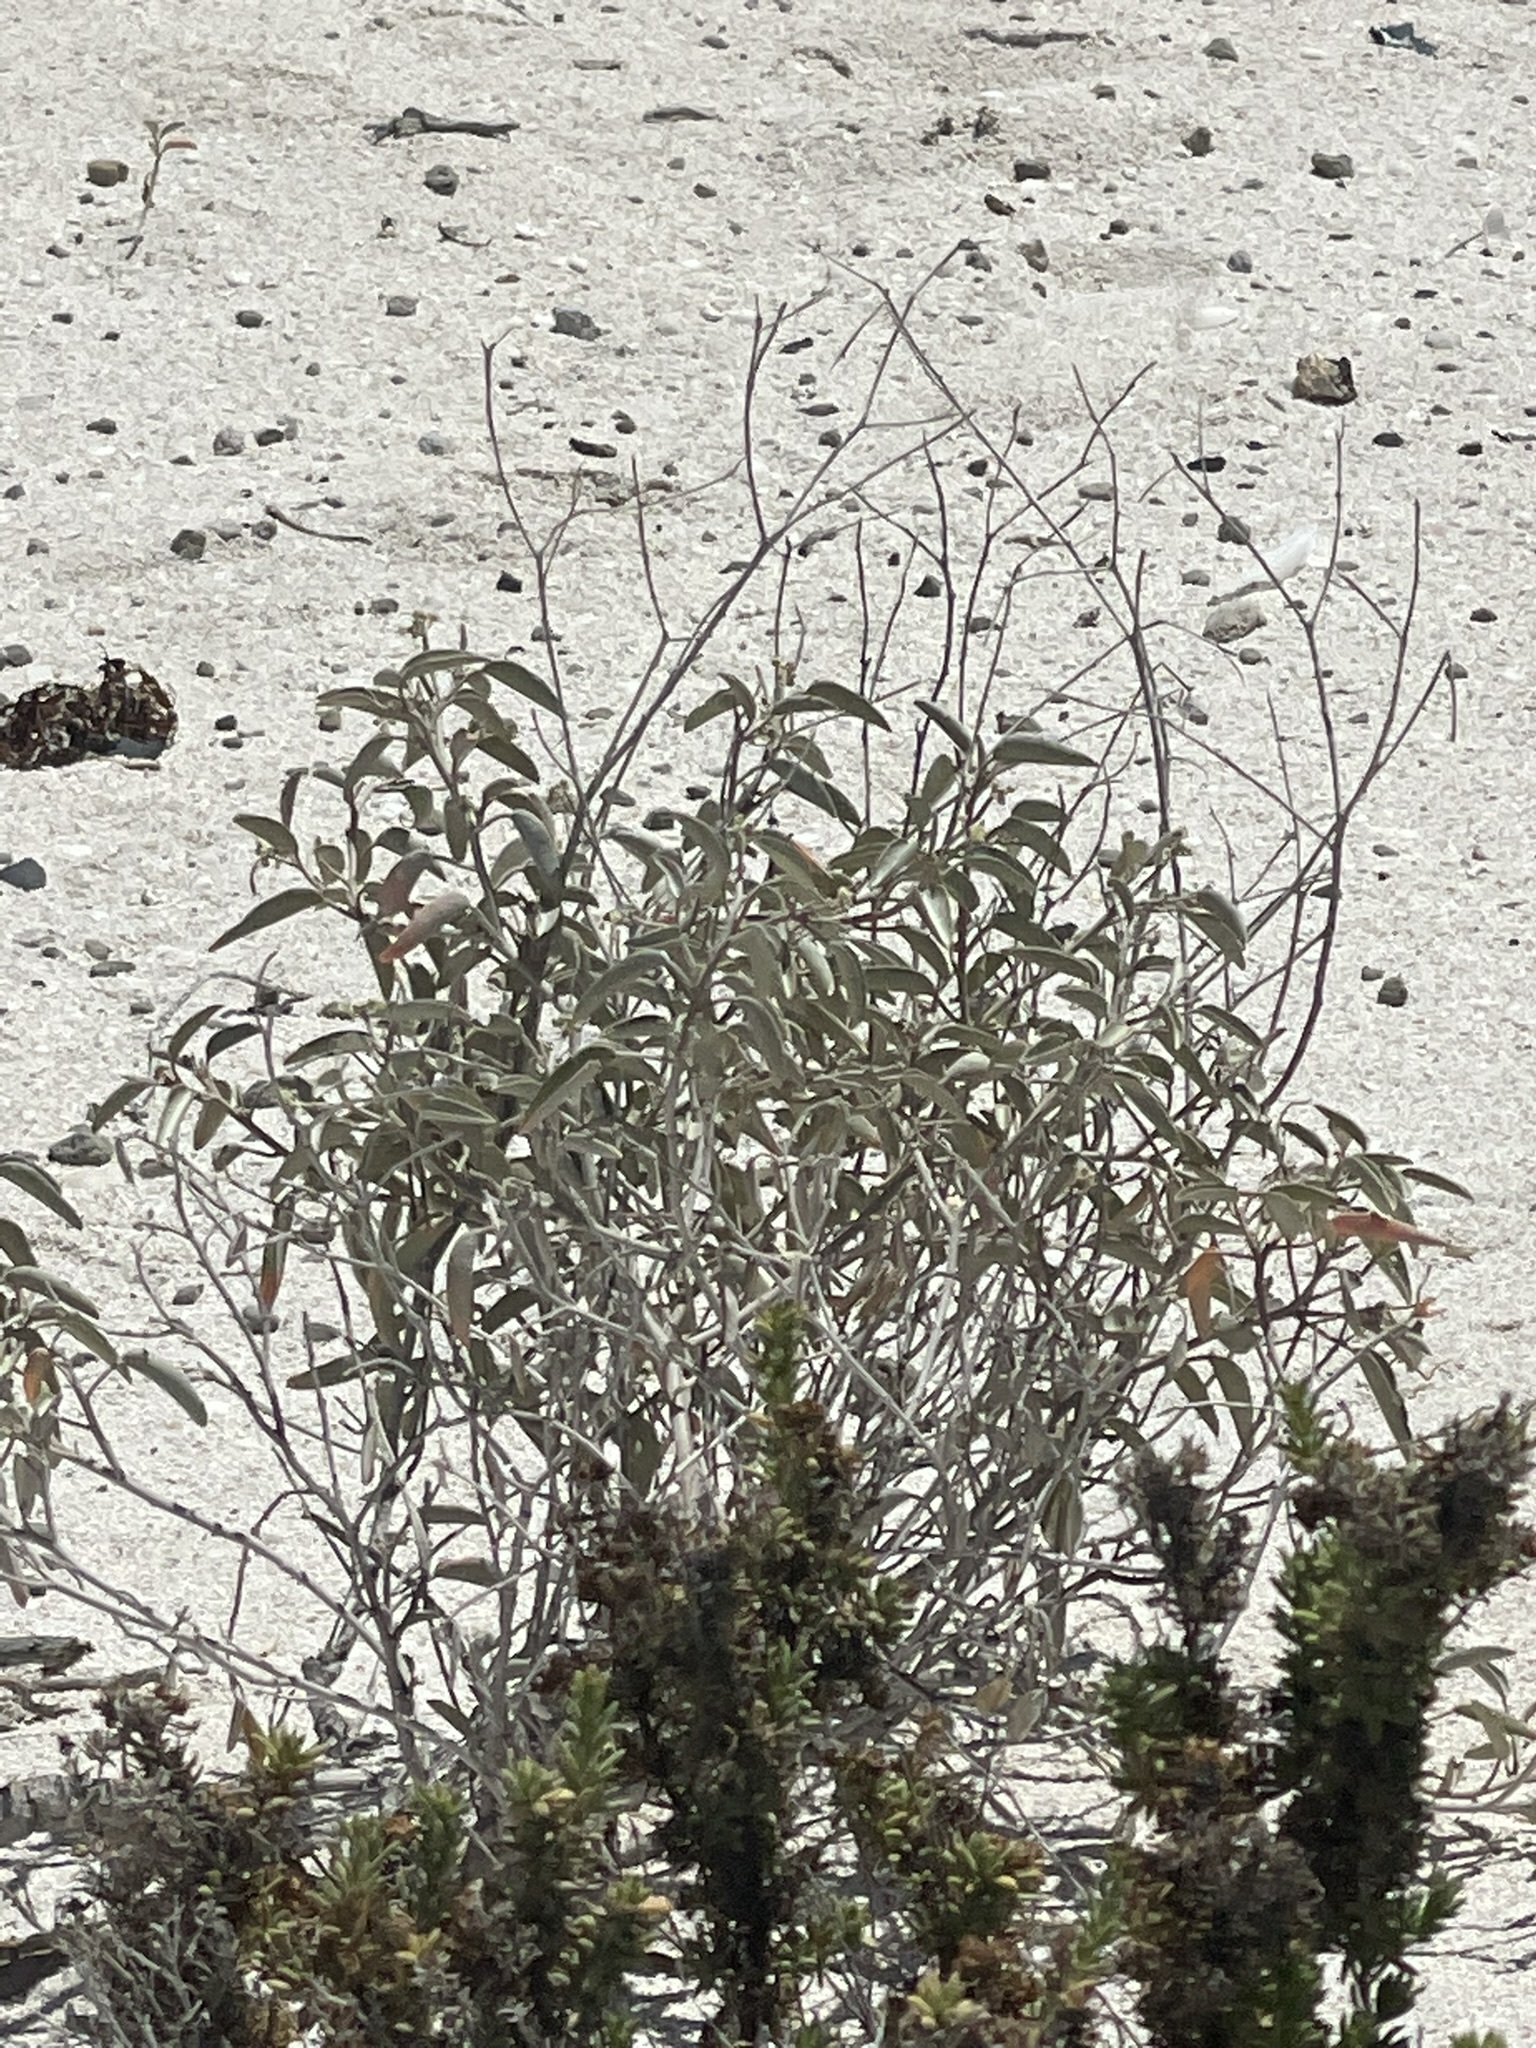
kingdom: Plantae
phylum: Tracheophyta
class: Magnoliopsida
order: Malpighiales
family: Euphorbiaceae
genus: Croton
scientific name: Croton californicus
